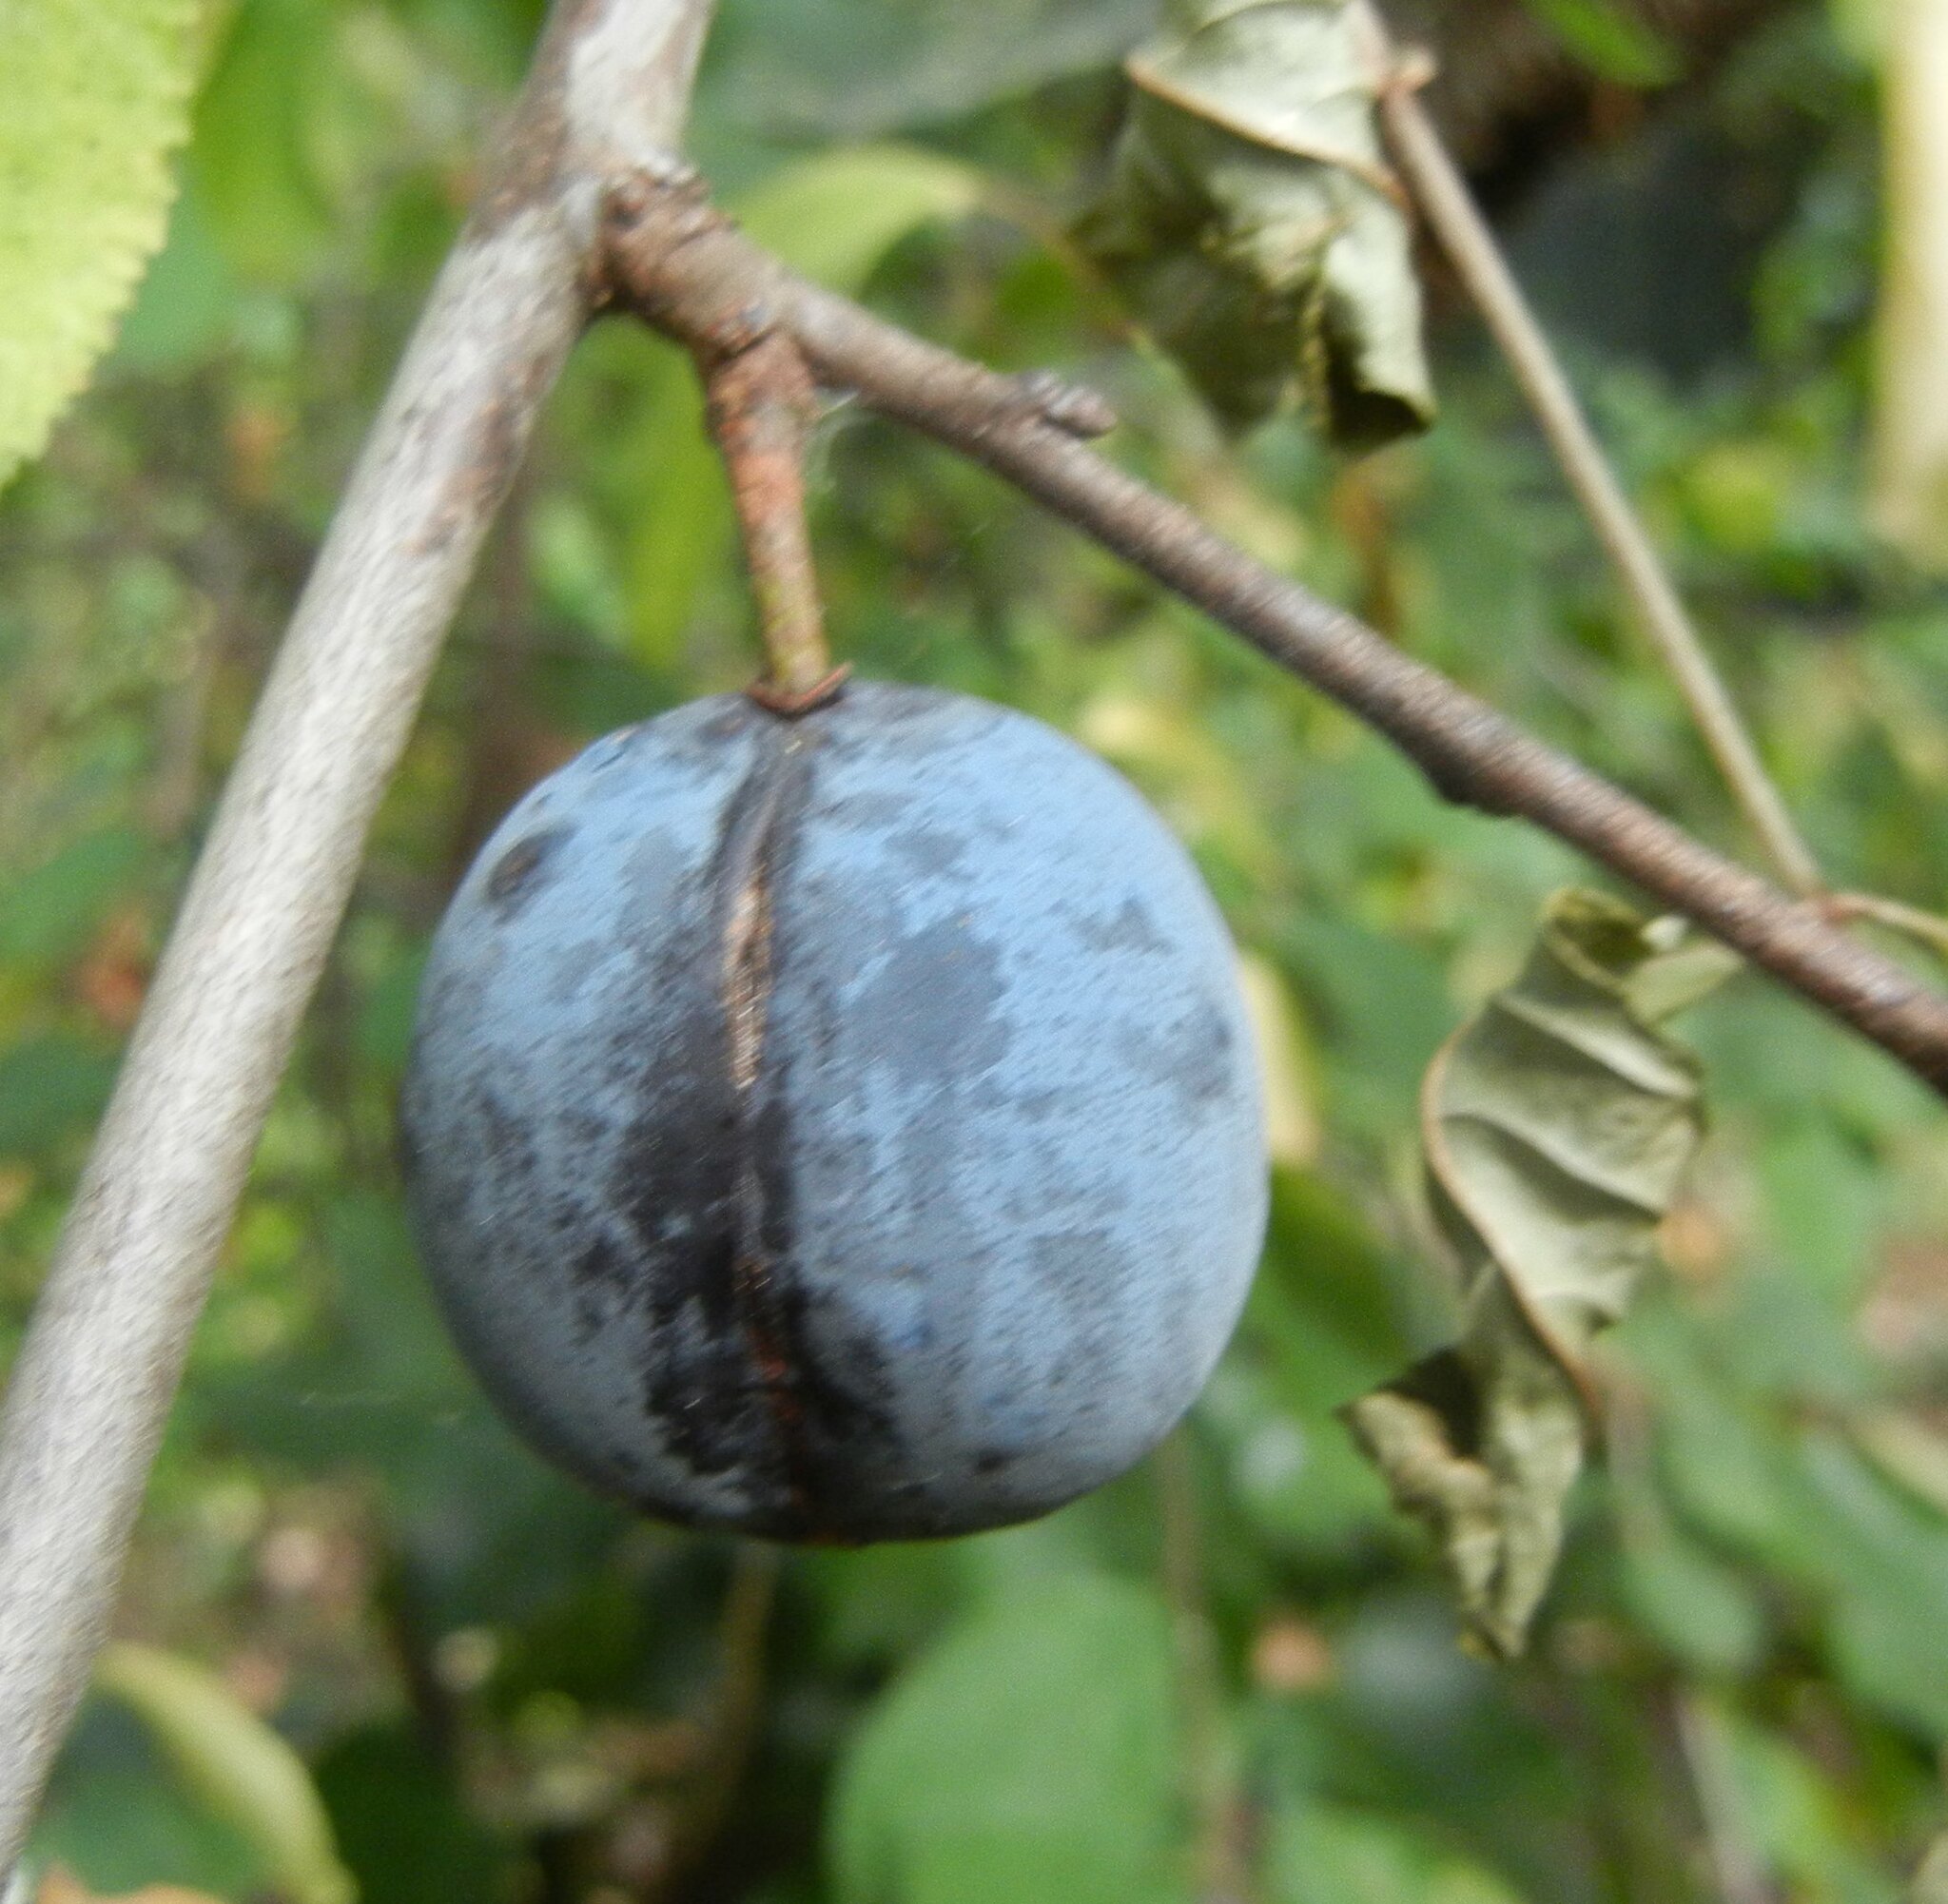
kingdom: Plantae
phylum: Tracheophyta
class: Magnoliopsida
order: Rosales
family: Rosaceae
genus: Prunus
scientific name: Prunus domestica
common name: Wild plum
